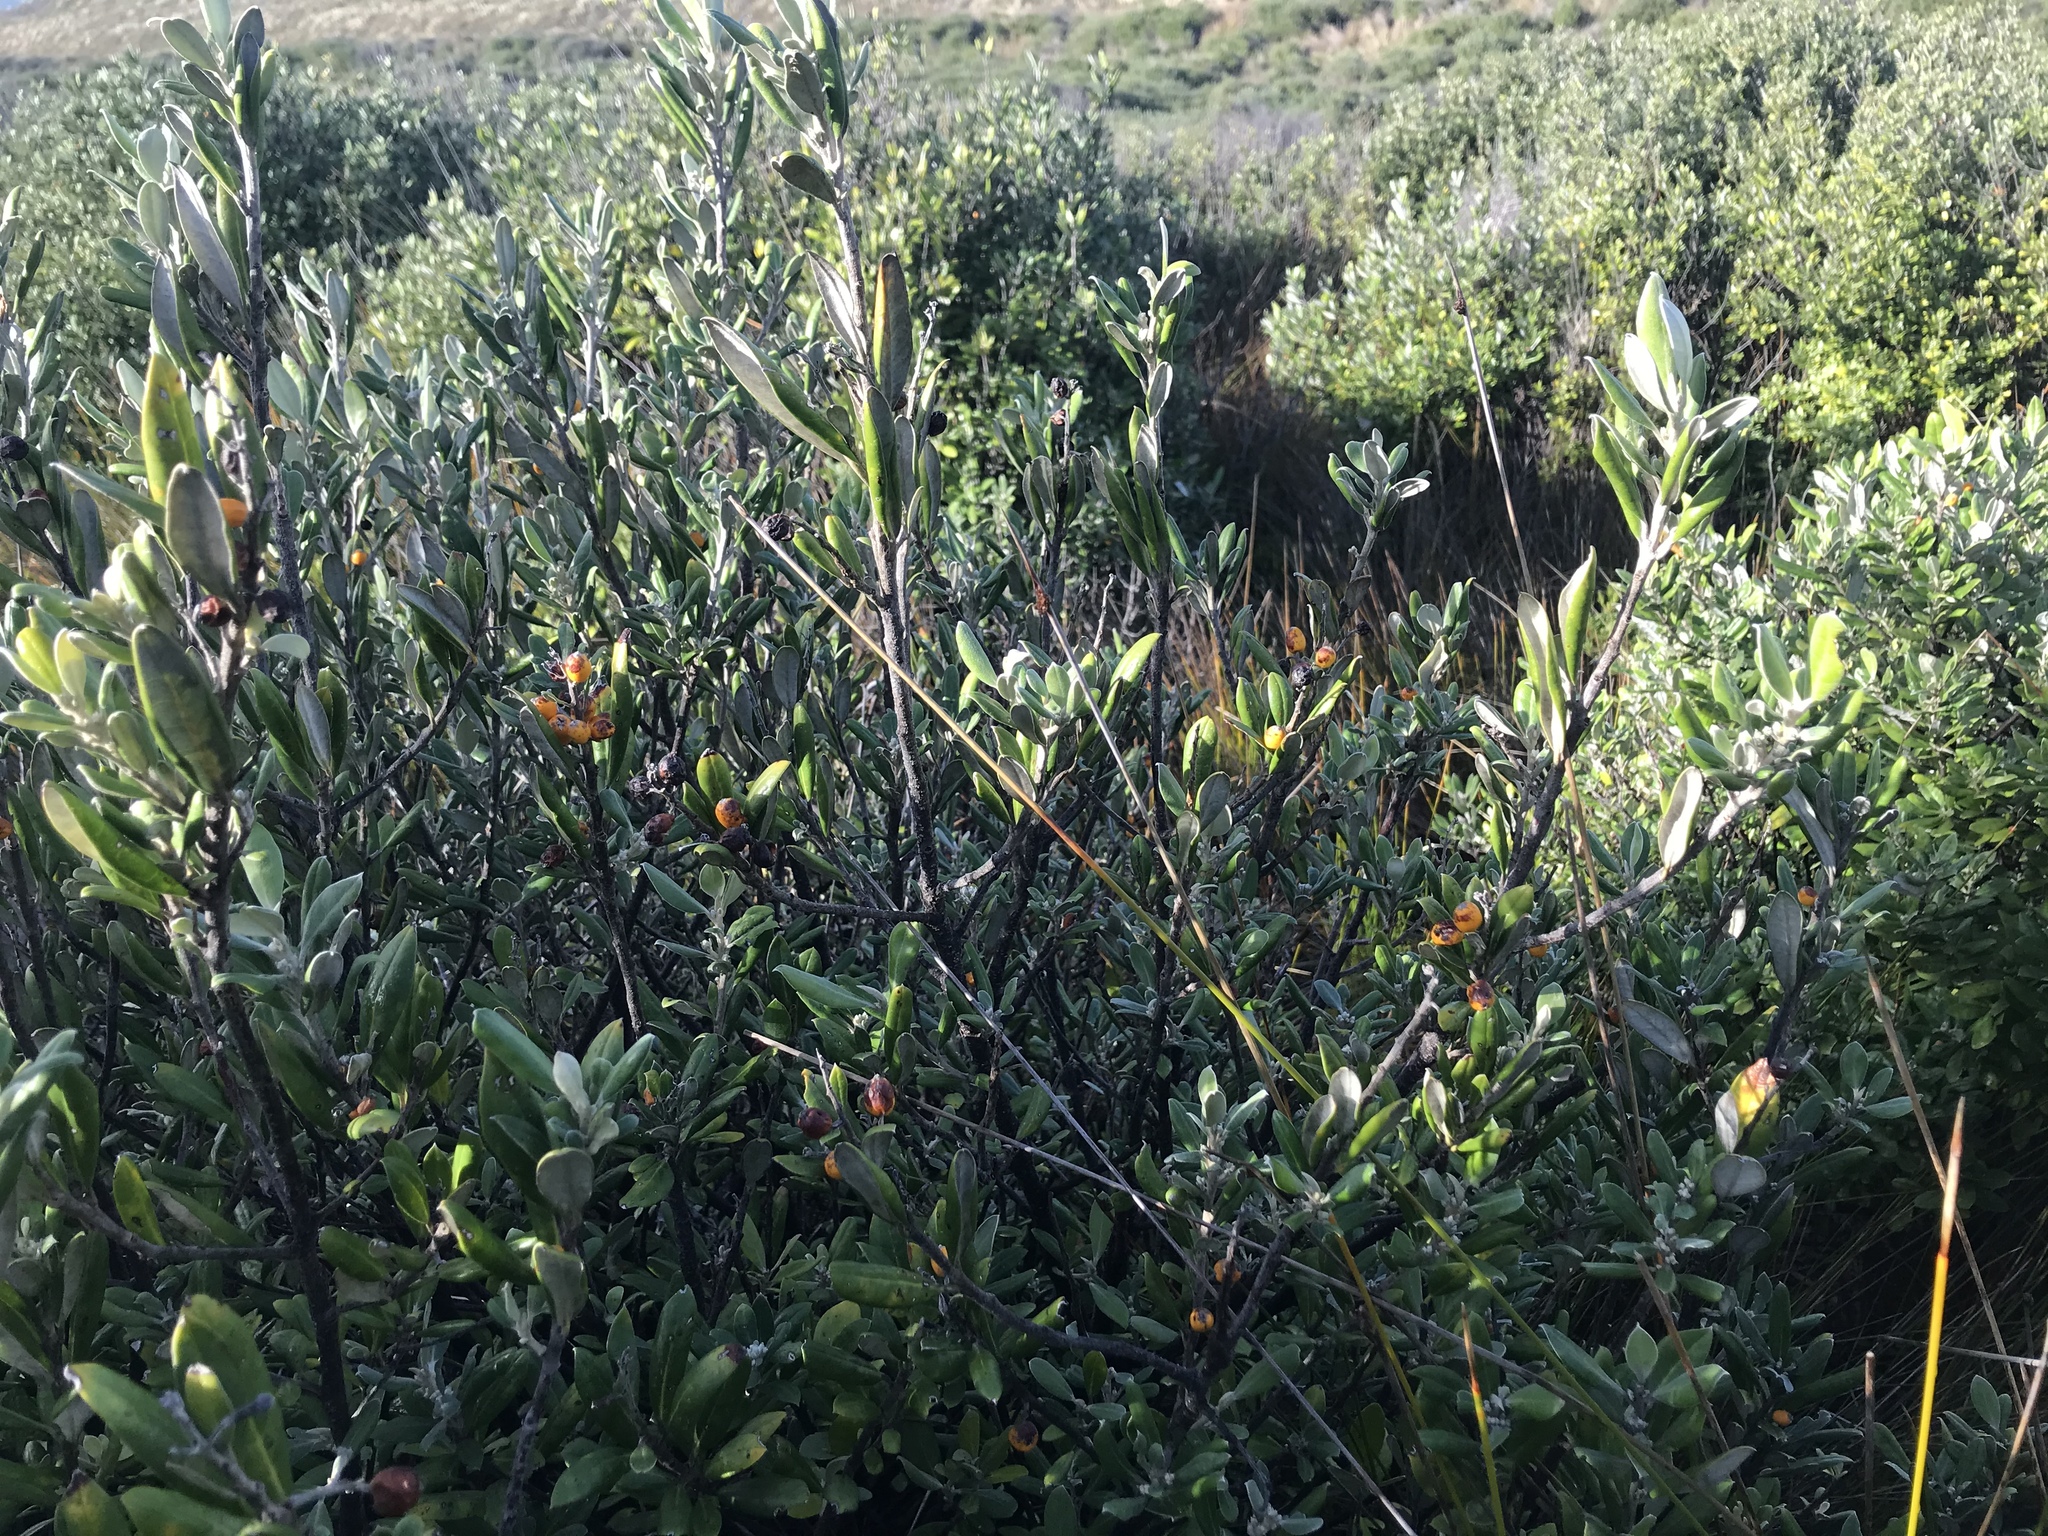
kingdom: Plantae
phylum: Tracheophyta
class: Magnoliopsida
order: Asterales
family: Argophyllaceae
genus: Corokia
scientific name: Corokia macrocarpa
